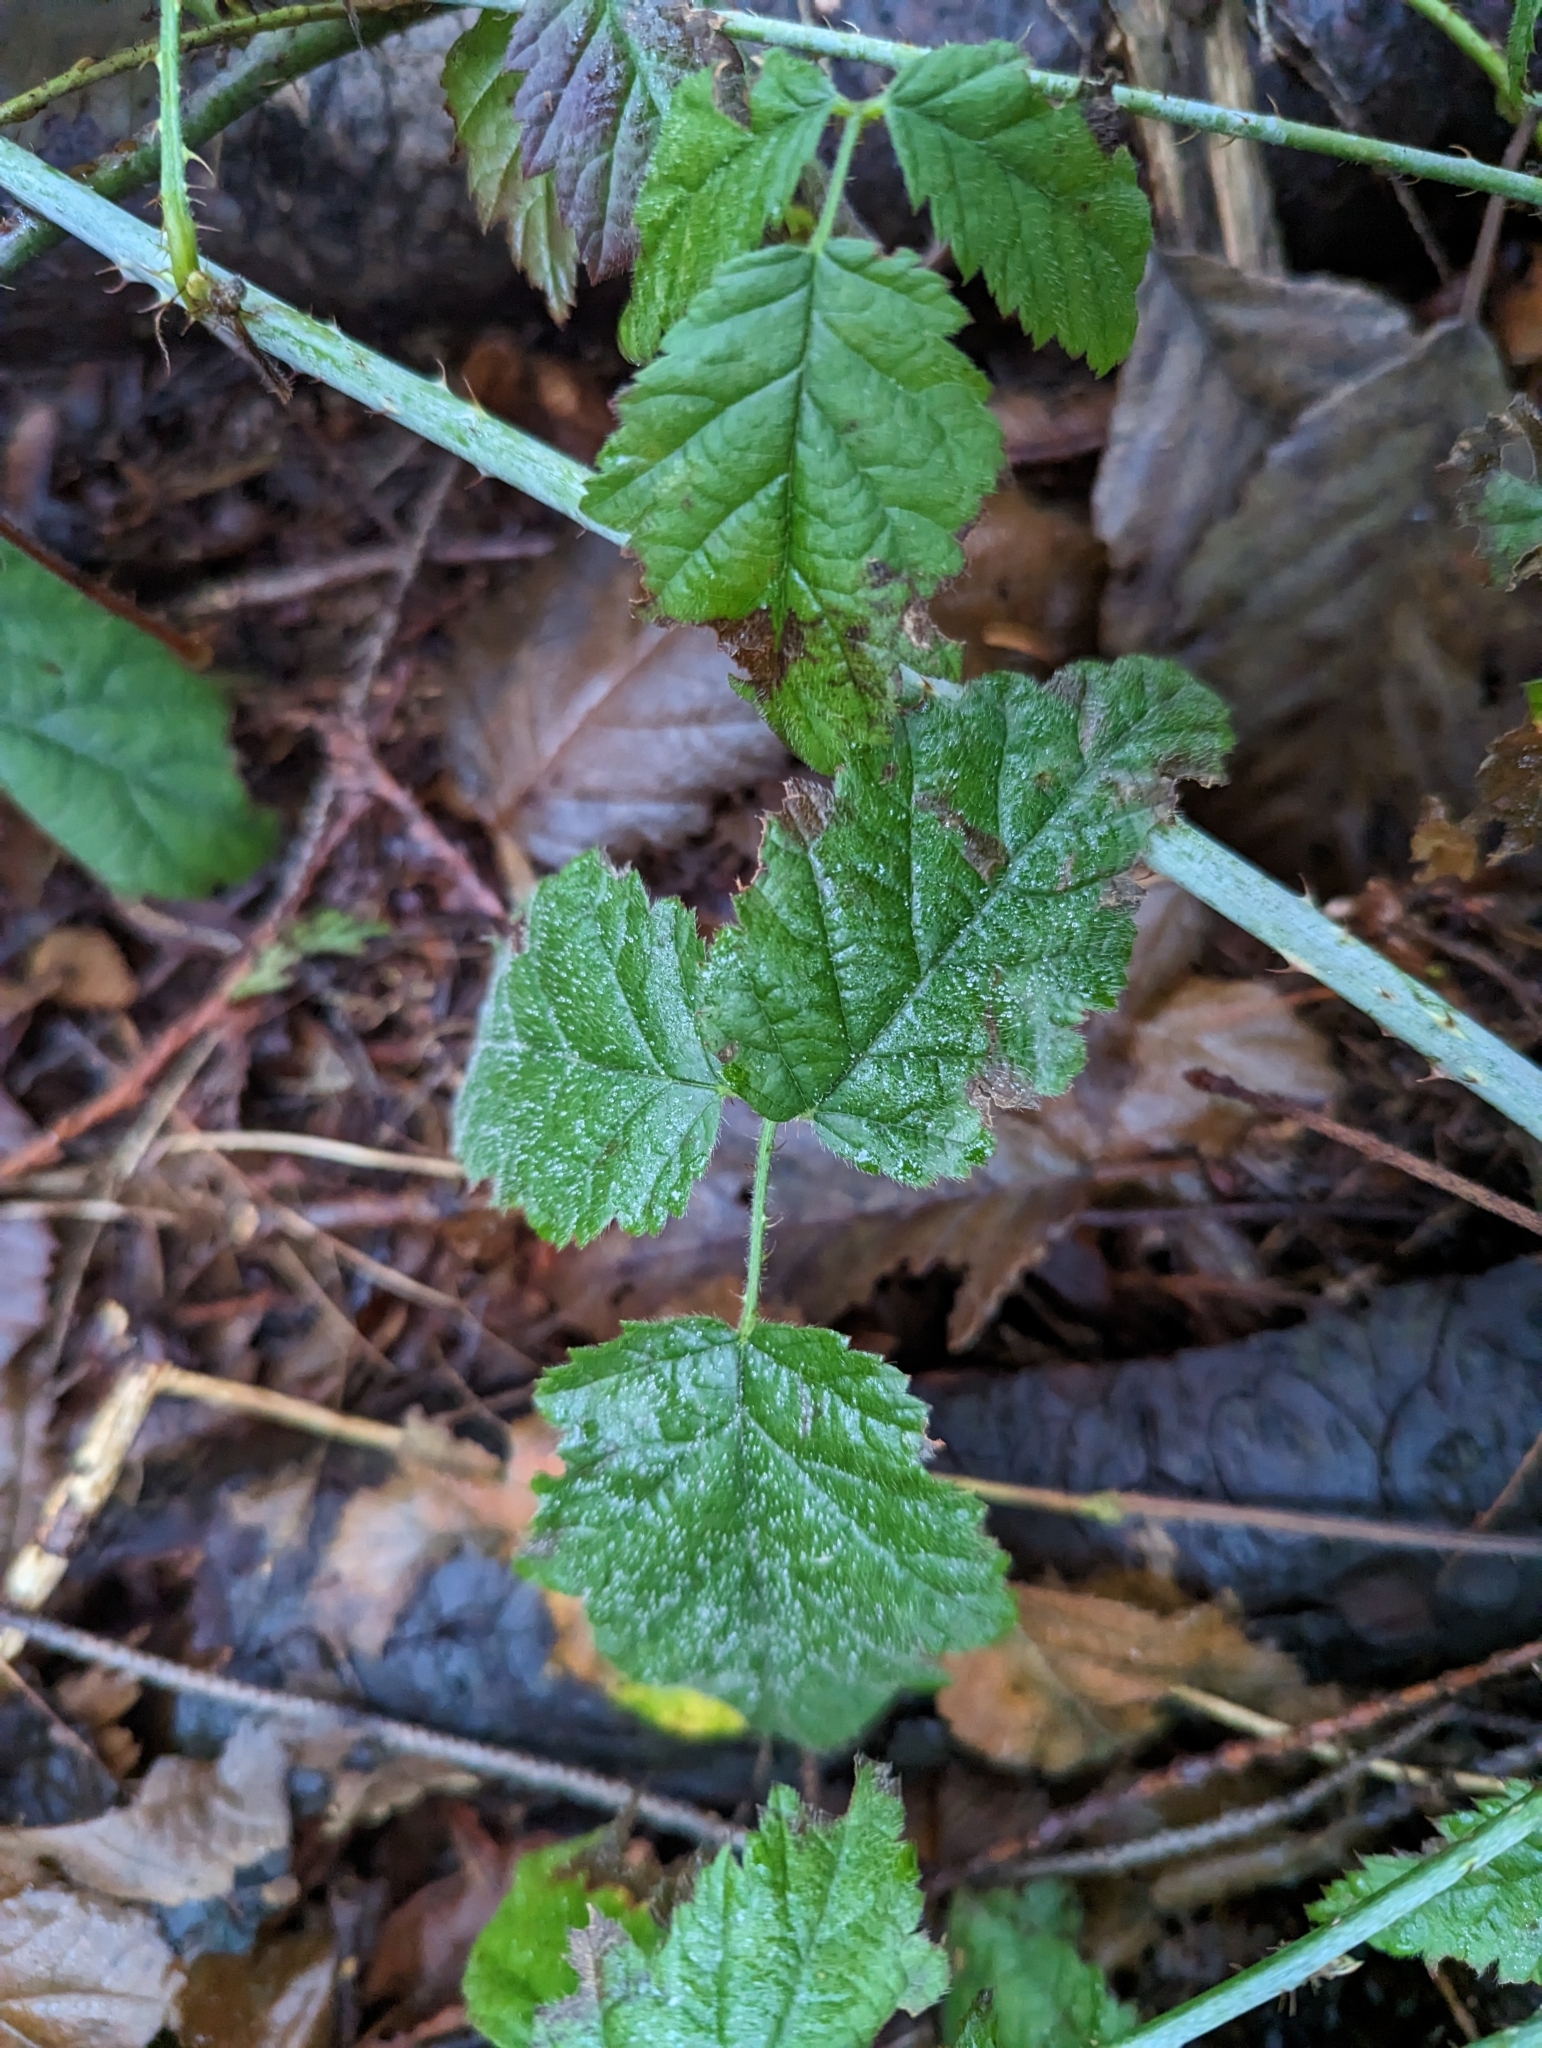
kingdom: Plantae
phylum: Tracheophyta
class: Magnoliopsida
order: Rosales
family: Rosaceae
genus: Rubus
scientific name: Rubus ursinus
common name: Pacific blackberry
